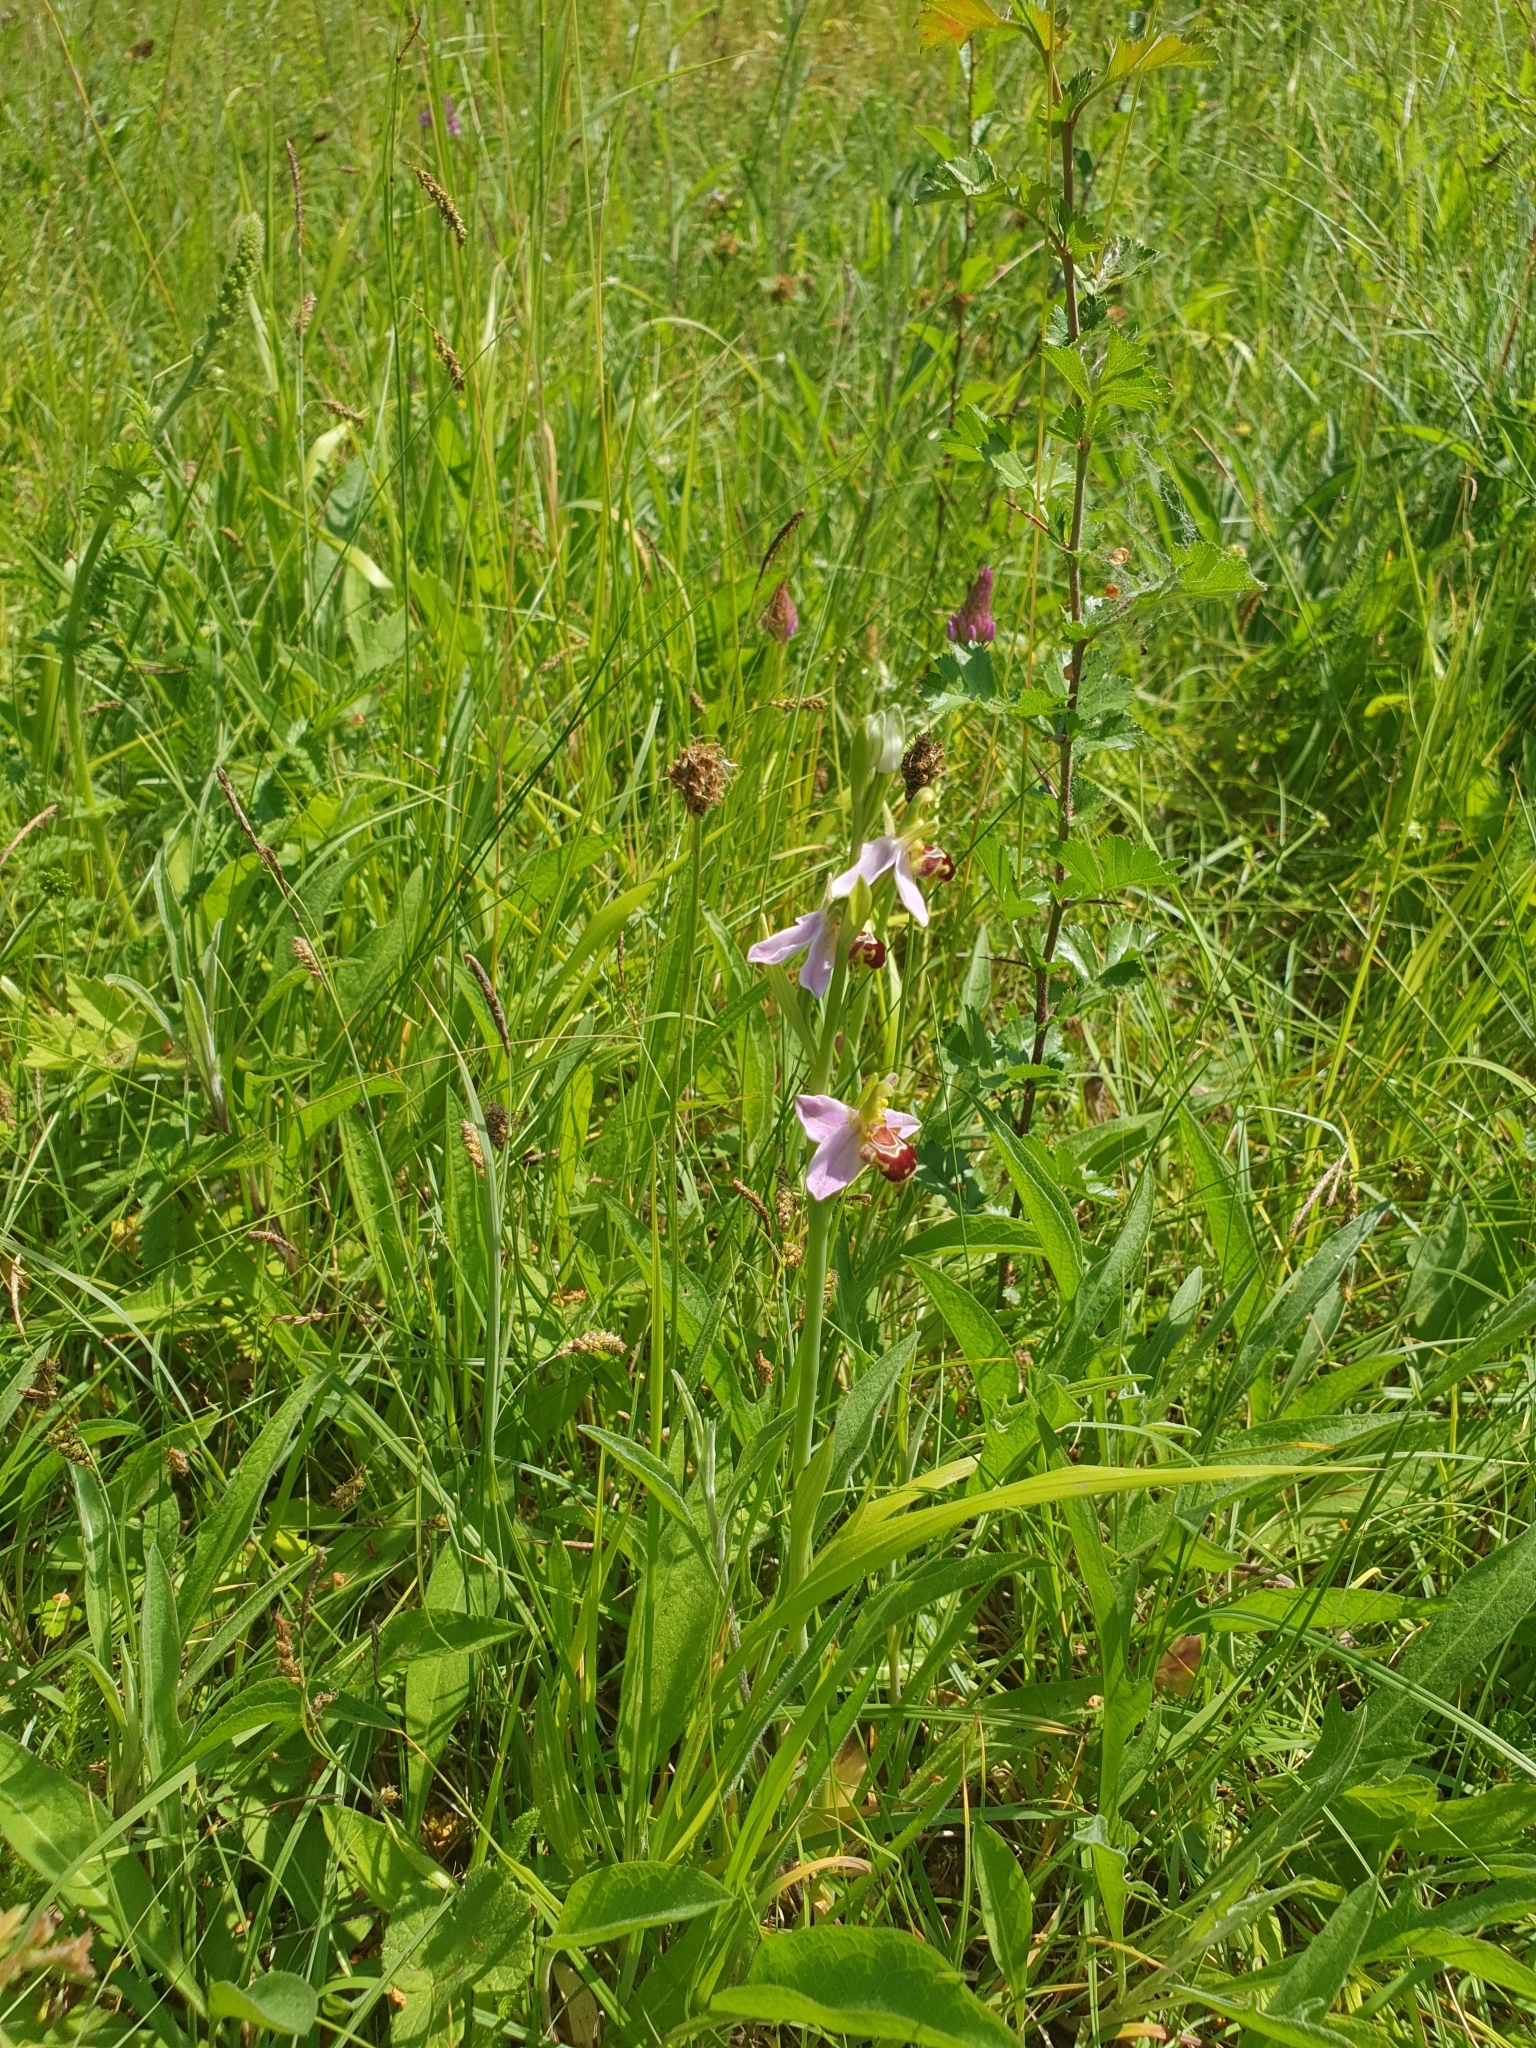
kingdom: Plantae
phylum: Tracheophyta
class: Liliopsida
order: Asparagales
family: Orchidaceae
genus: Ophrys
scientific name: Ophrys apifera
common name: Bee orchid
